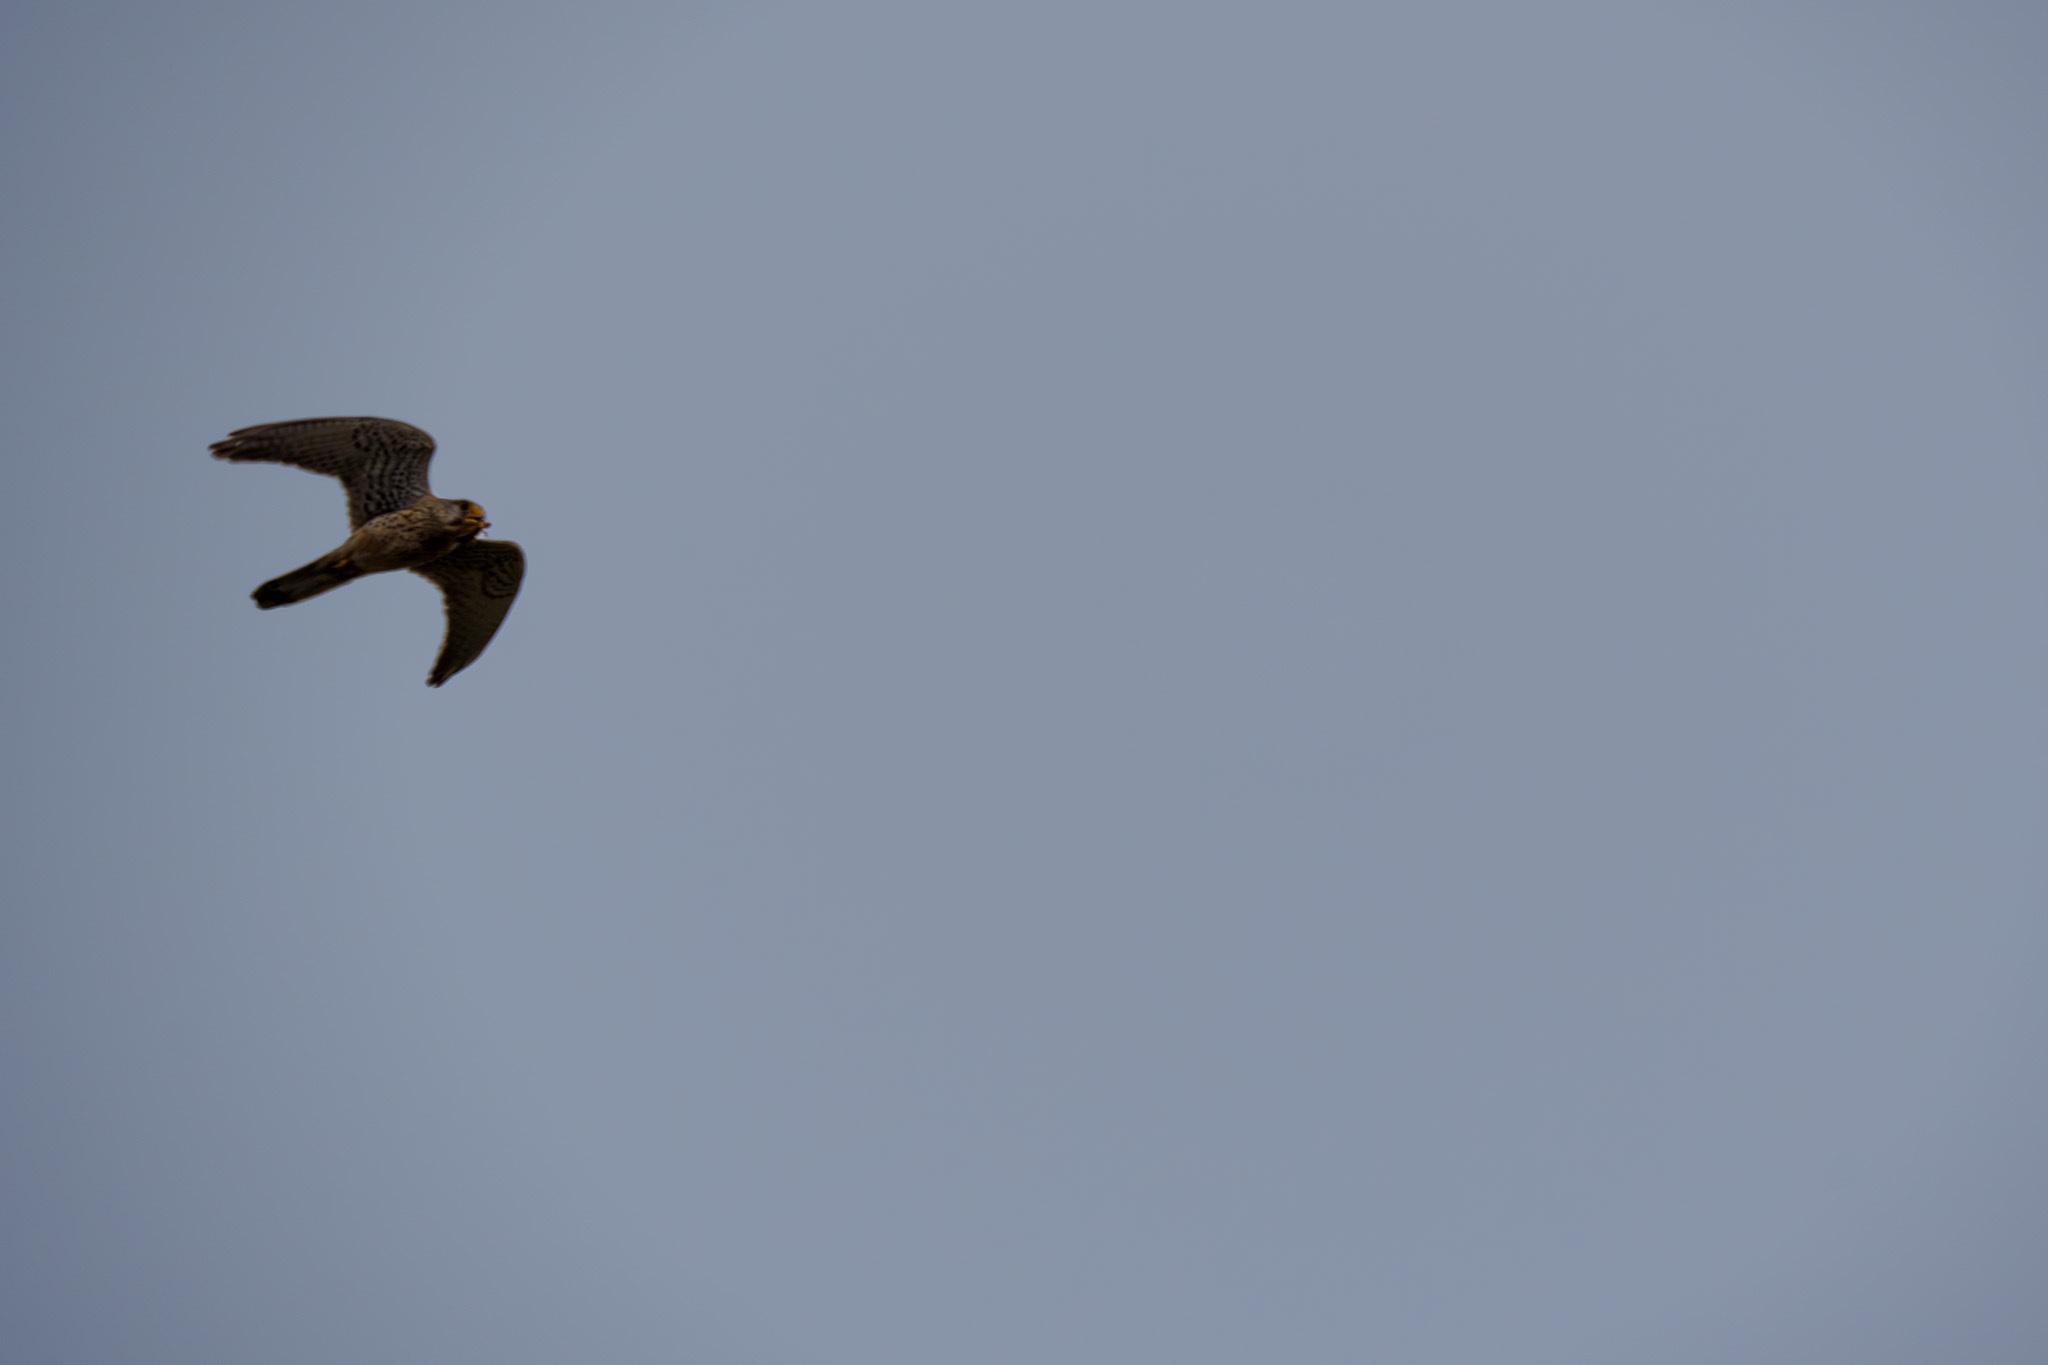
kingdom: Animalia
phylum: Chordata
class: Aves
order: Falconiformes
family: Falconidae
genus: Falco
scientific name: Falco tinnunculus
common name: Common kestrel
